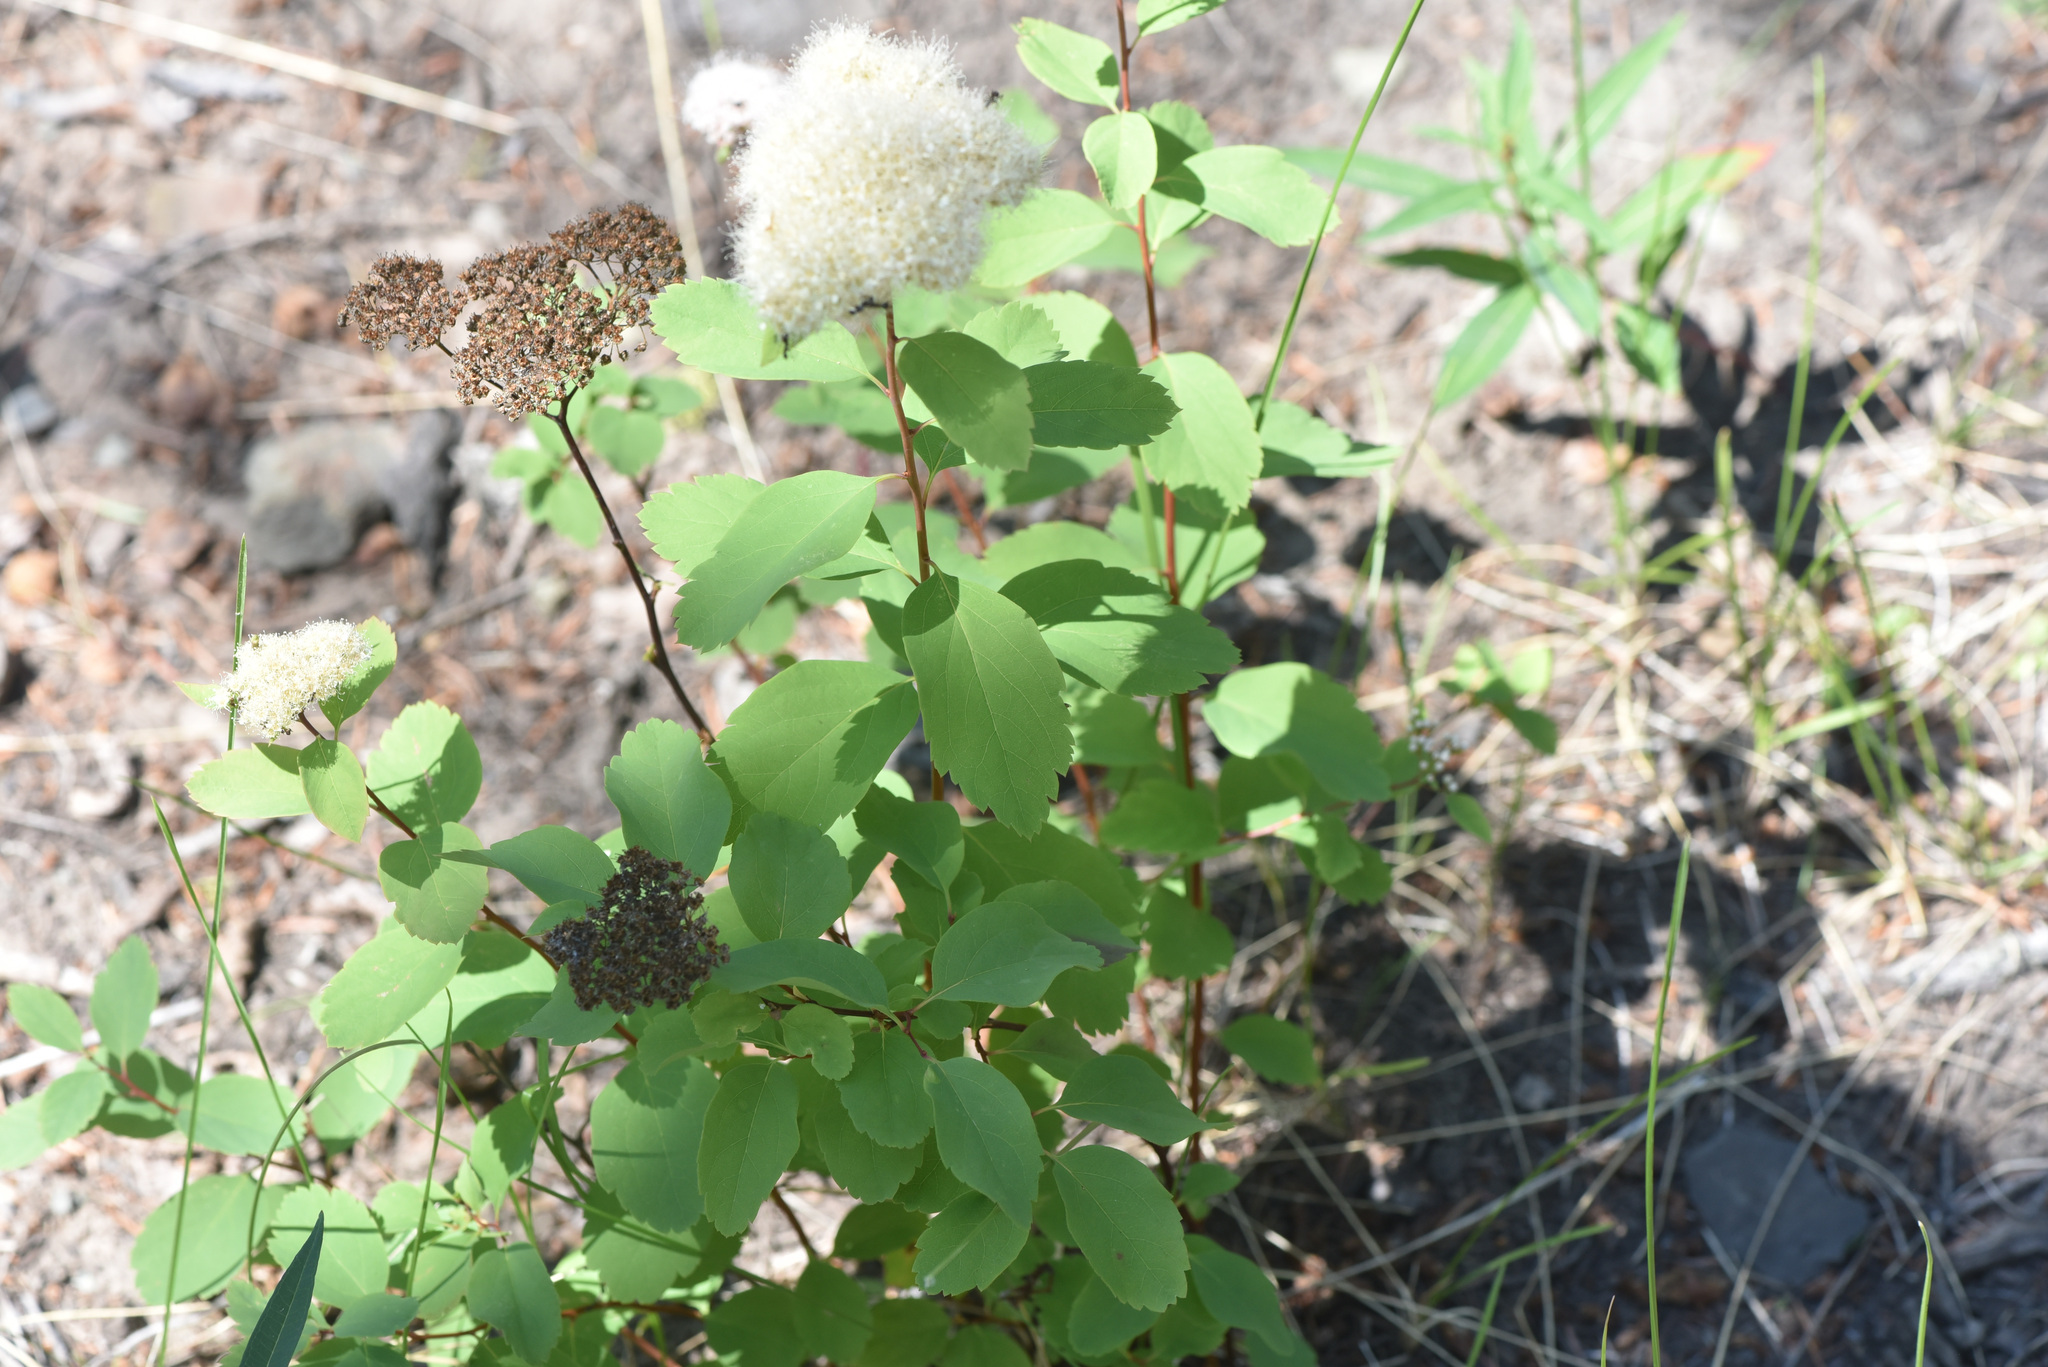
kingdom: Plantae
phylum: Tracheophyta
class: Magnoliopsida
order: Rosales
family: Rosaceae
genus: Spiraea
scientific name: Spiraea lucida
